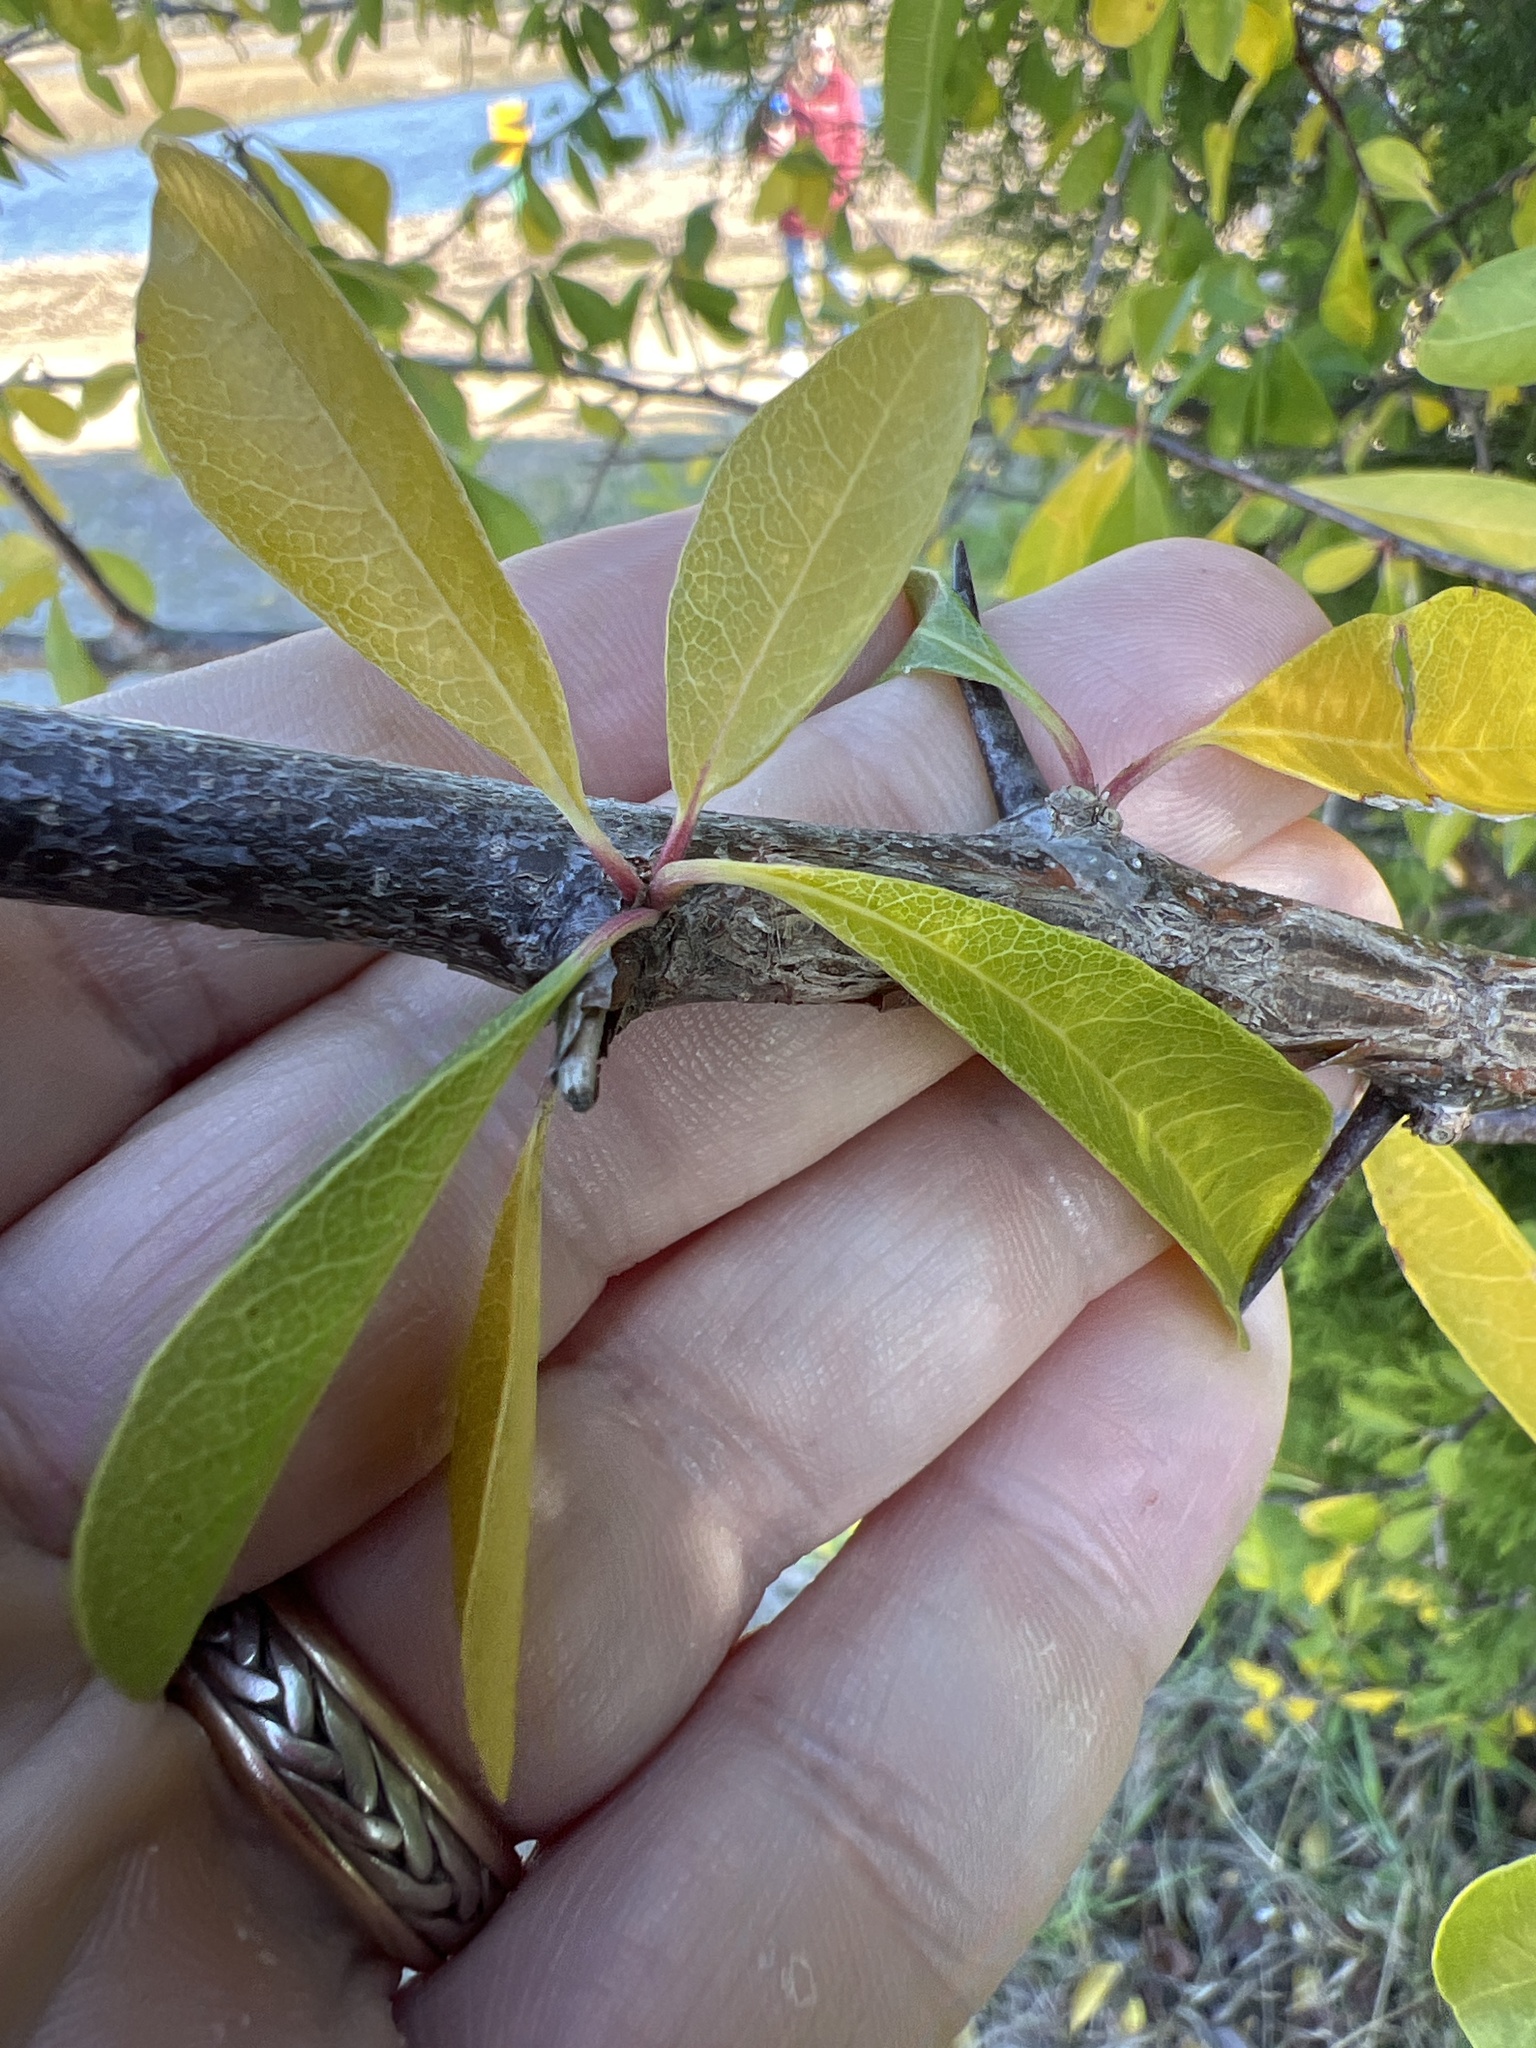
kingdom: Plantae
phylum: Tracheophyta
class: Magnoliopsida
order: Ericales
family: Sapotaceae
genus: Sideroxylon
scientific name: Sideroxylon lycioides
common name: Buckthorn bumelia
